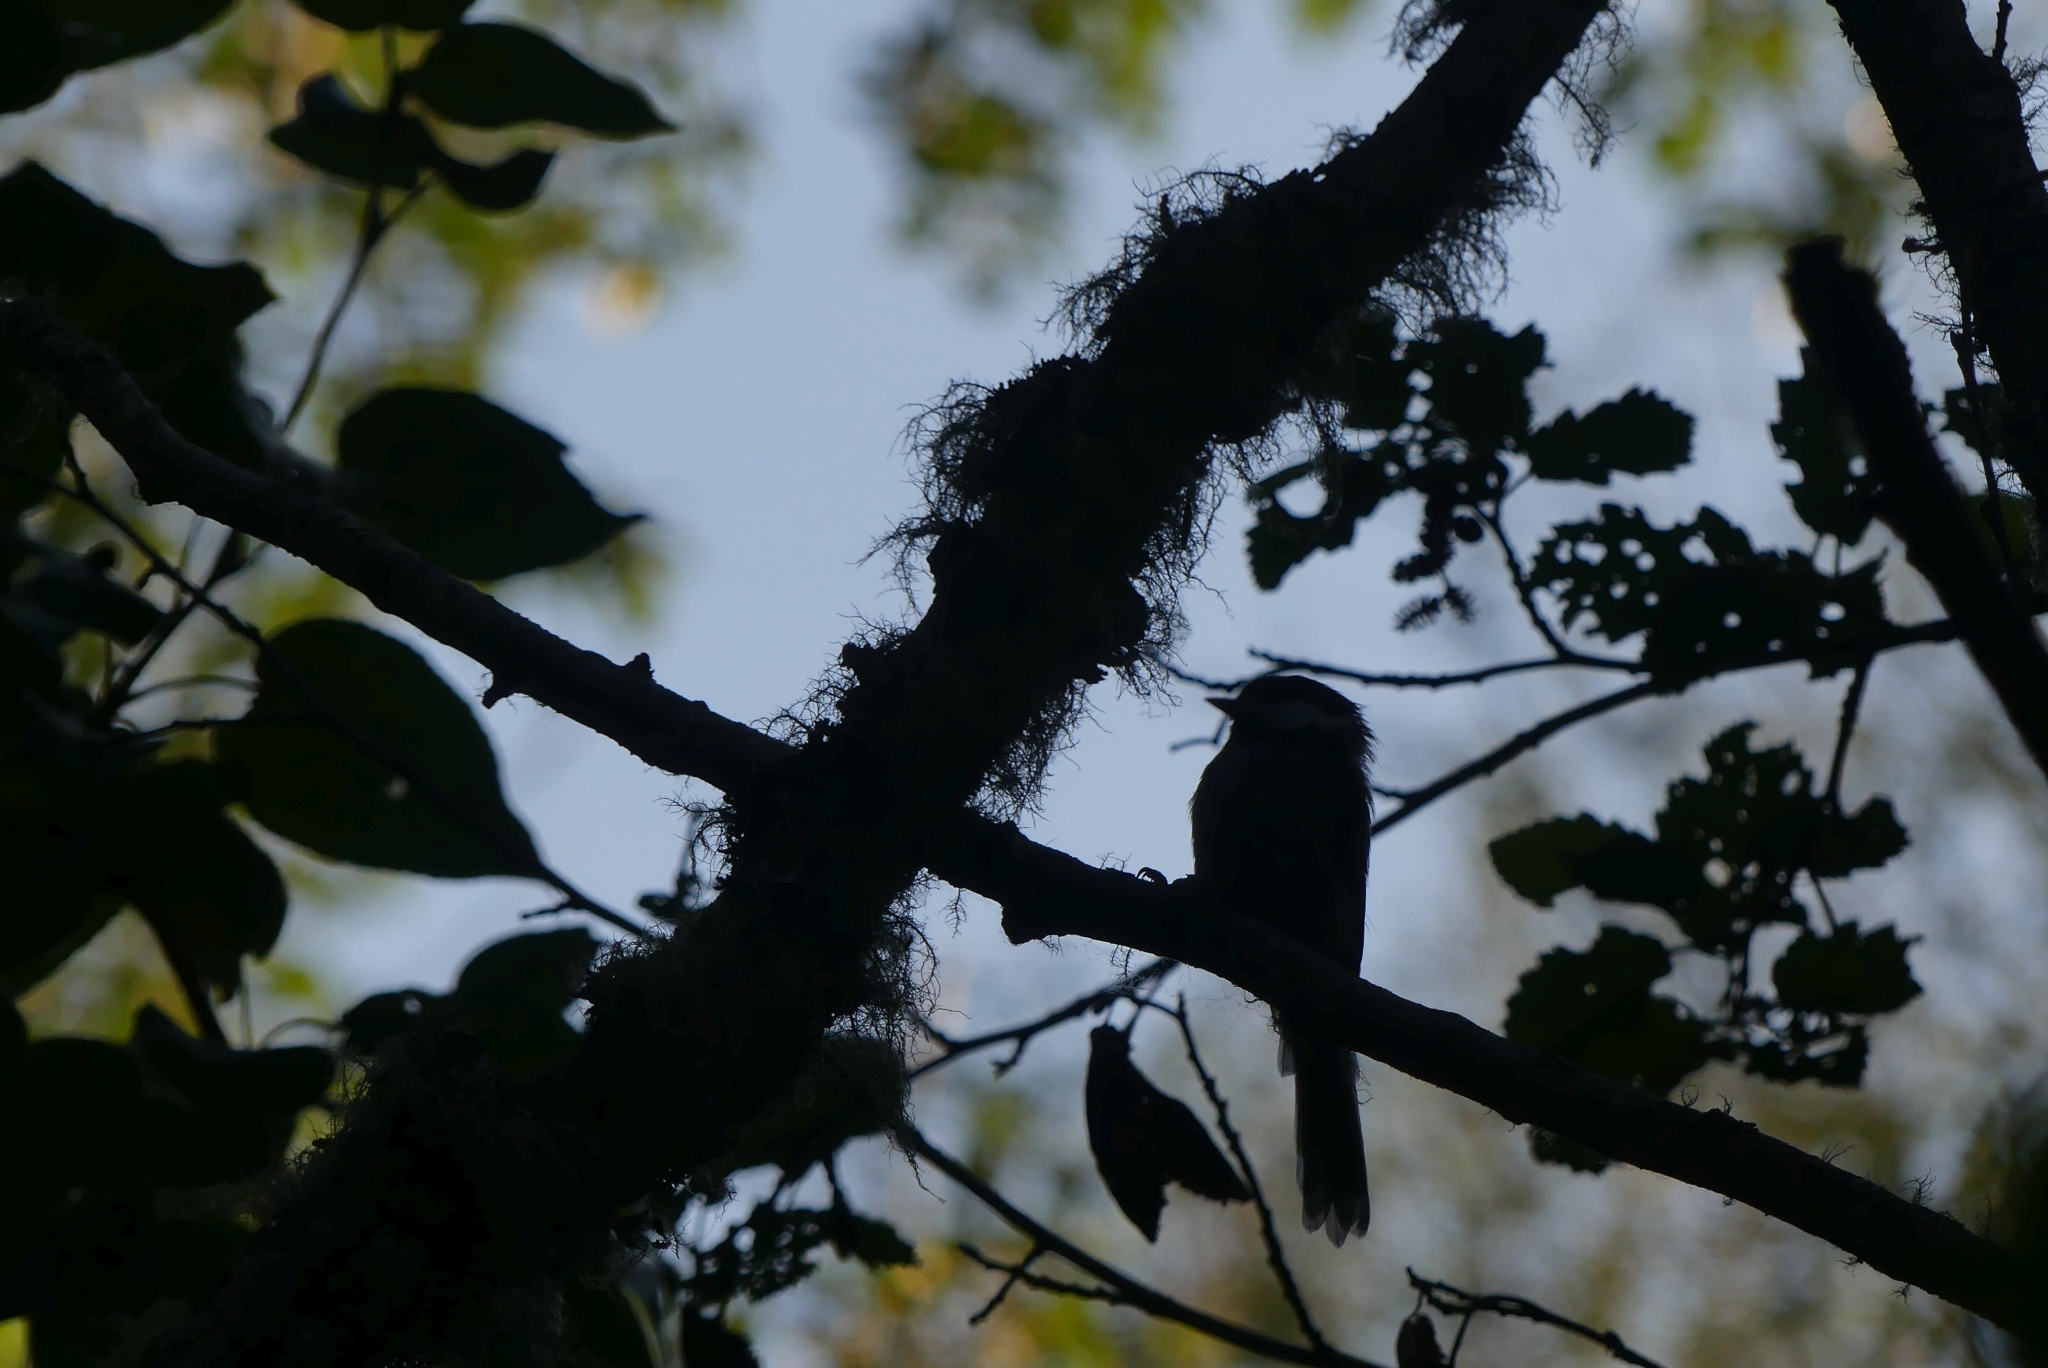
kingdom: Animalia
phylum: Chordata
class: Aves
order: Passeriformes
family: Paridae
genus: Poecile
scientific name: Poecile atricapillus
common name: Black-capped chickadee
